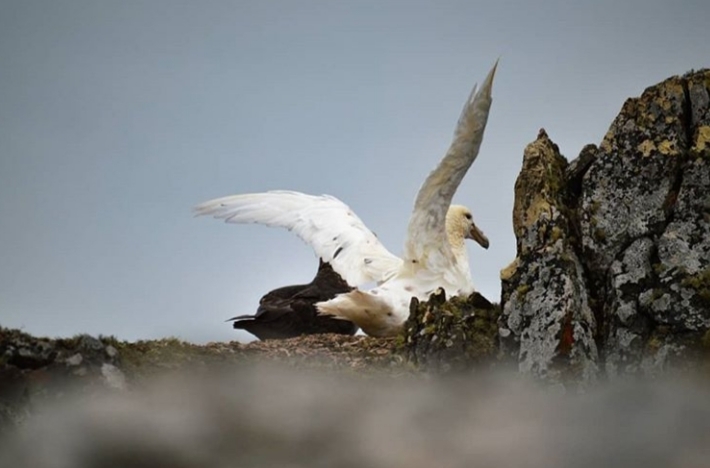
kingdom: Animalia
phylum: Chordata
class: Aves
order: Procellariiformes
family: Procellariidae
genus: Macronectes
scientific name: Macronectes giganteus
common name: Southern giant petrel
